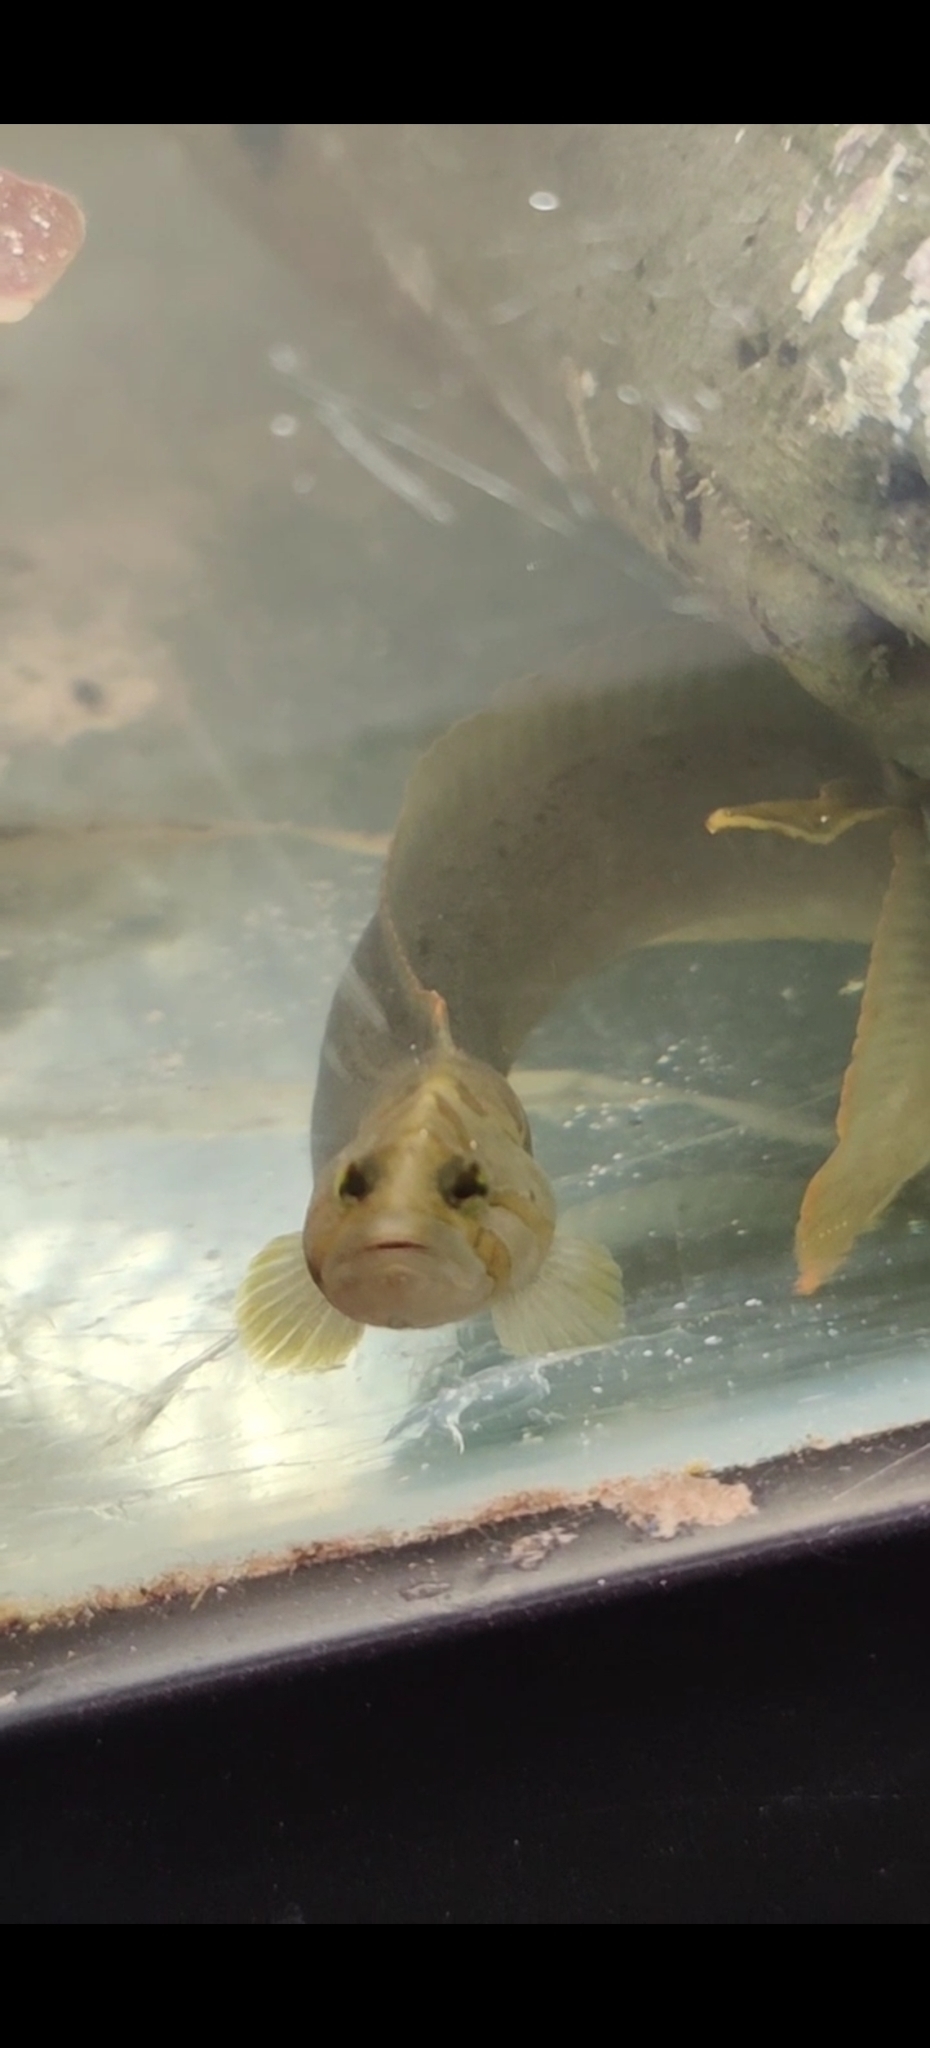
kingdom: Animalia
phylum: Chordata
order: Perciformes
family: Stichaeidae
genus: Cebidichthys
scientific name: Cebidichthys violaceus
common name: Monkeyface prickleback
